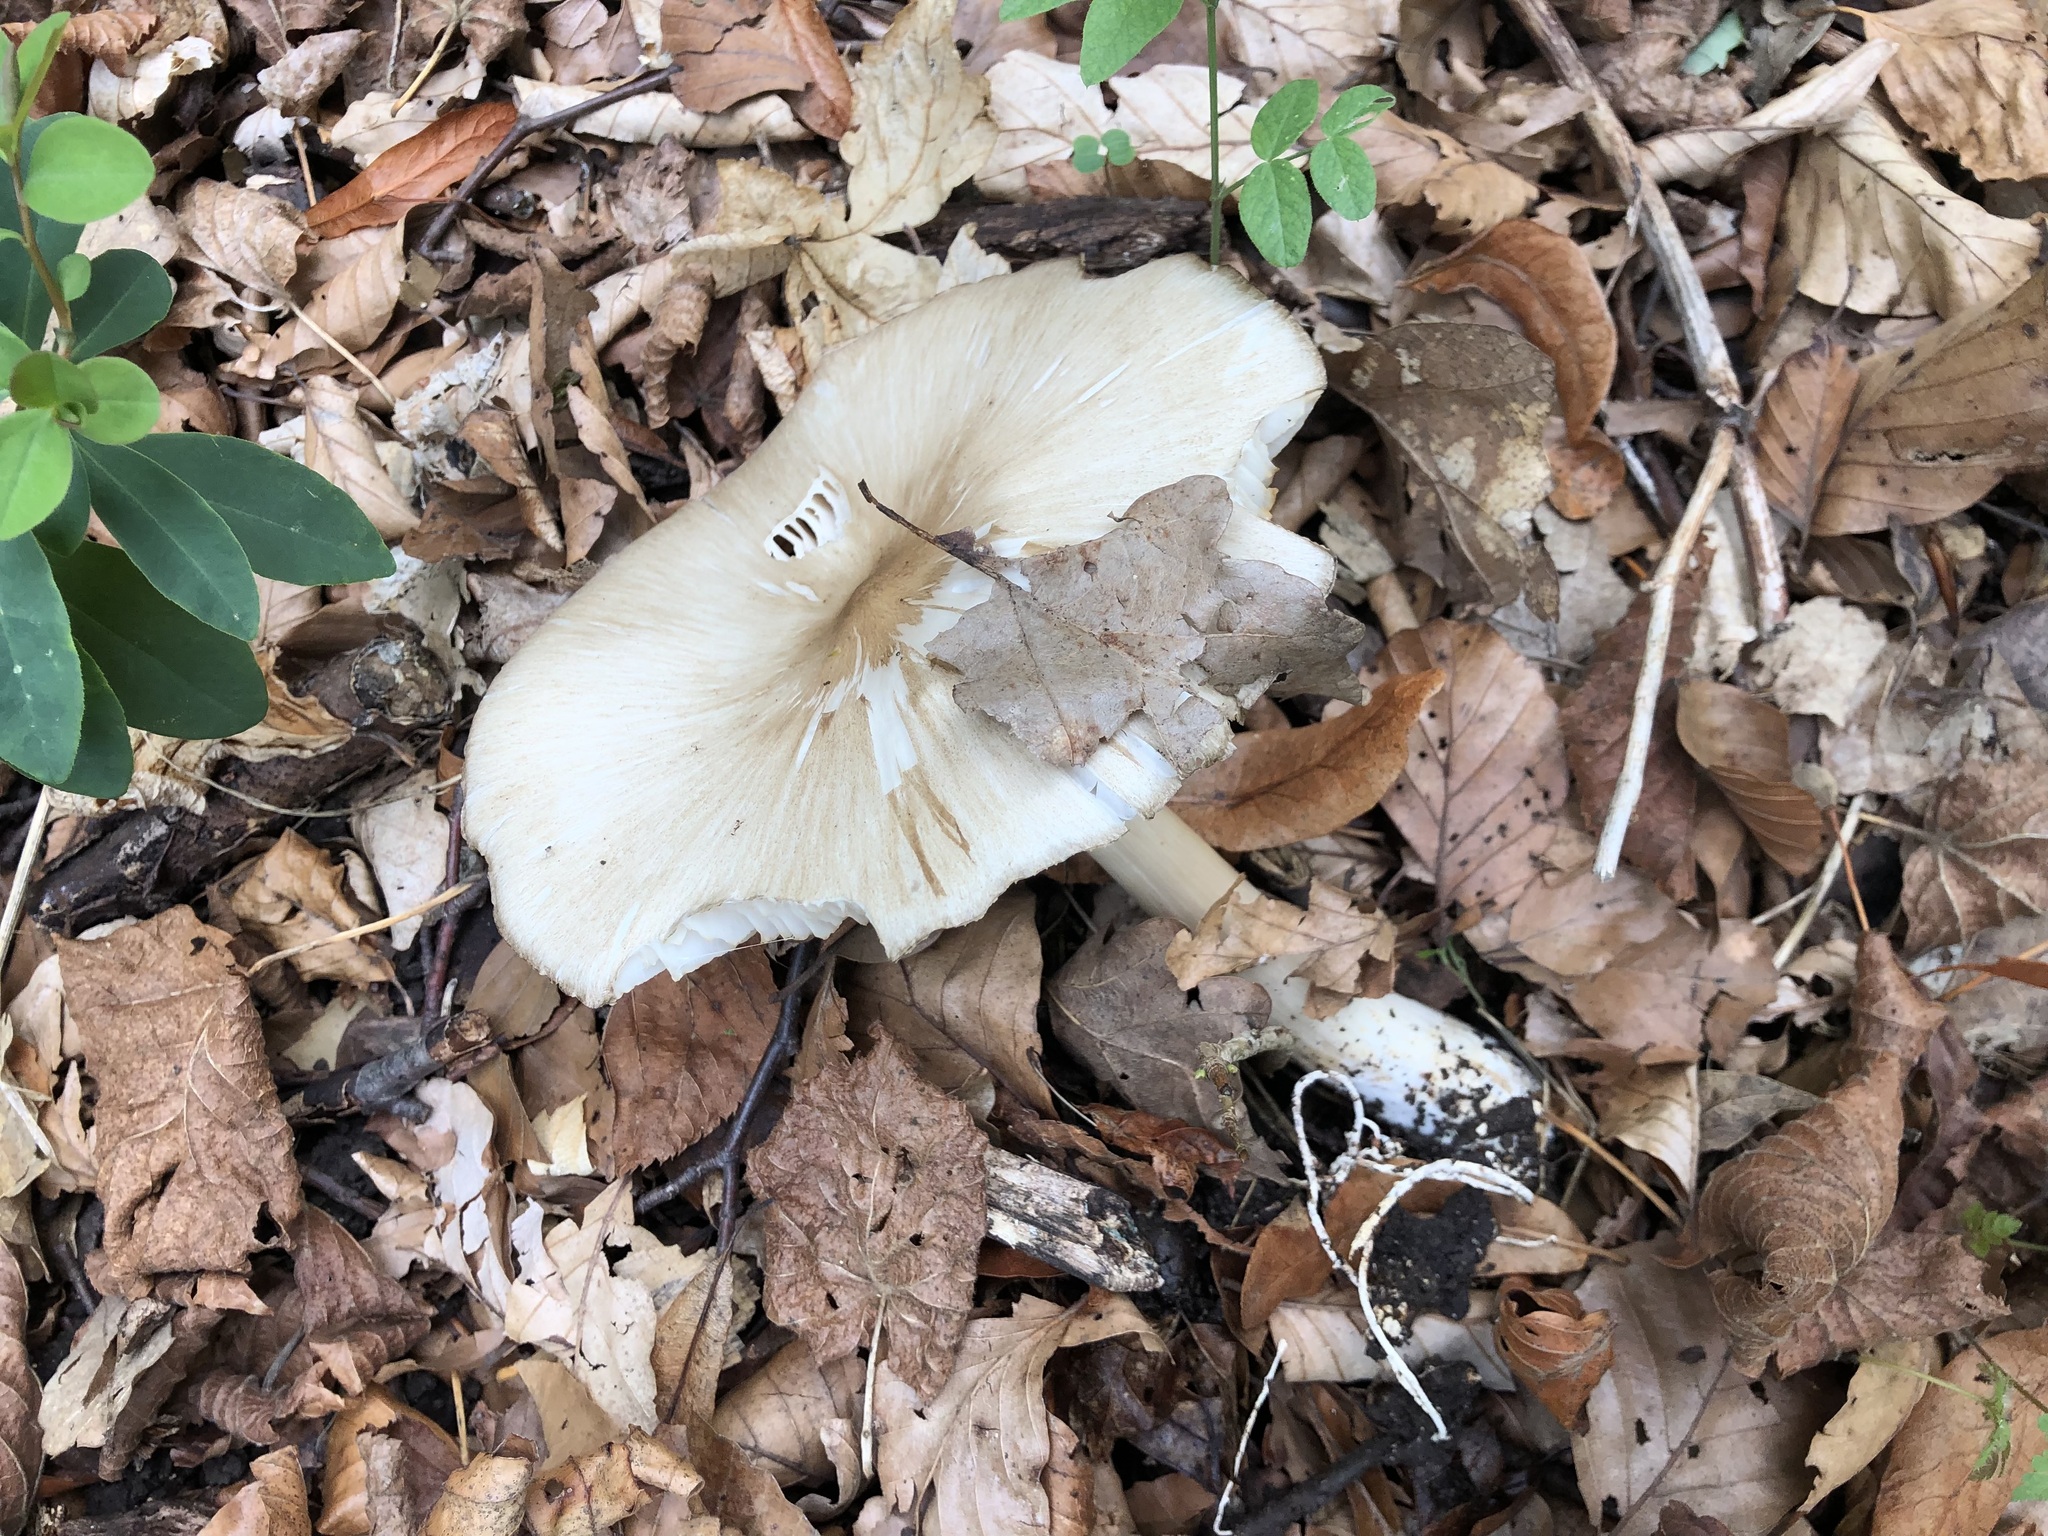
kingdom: Fungi
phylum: Basidiomycota
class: Agaricomycetes
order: Agaricales
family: Tricholomataceae
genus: Megacollybia
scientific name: Megacollybia platyphylla
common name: Whitelaced shank
